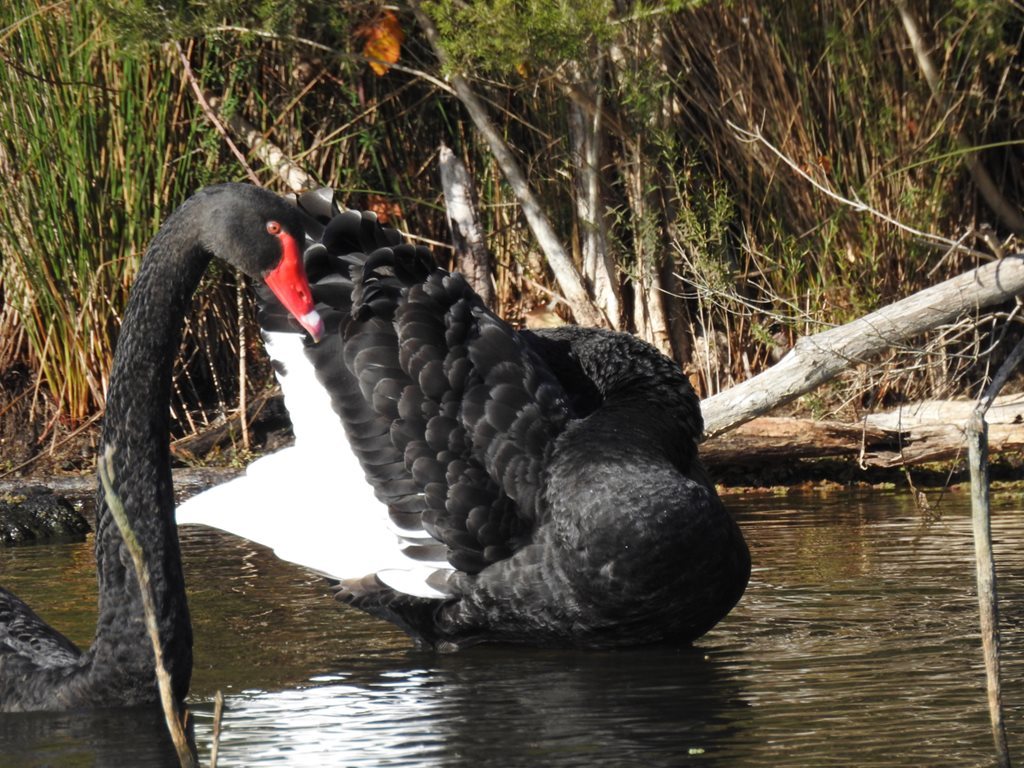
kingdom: Animalia
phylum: Chordata
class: Aves
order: Anseriformes
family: Anatidae
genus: Cygnus
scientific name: Cygnus atratus
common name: Black swan
